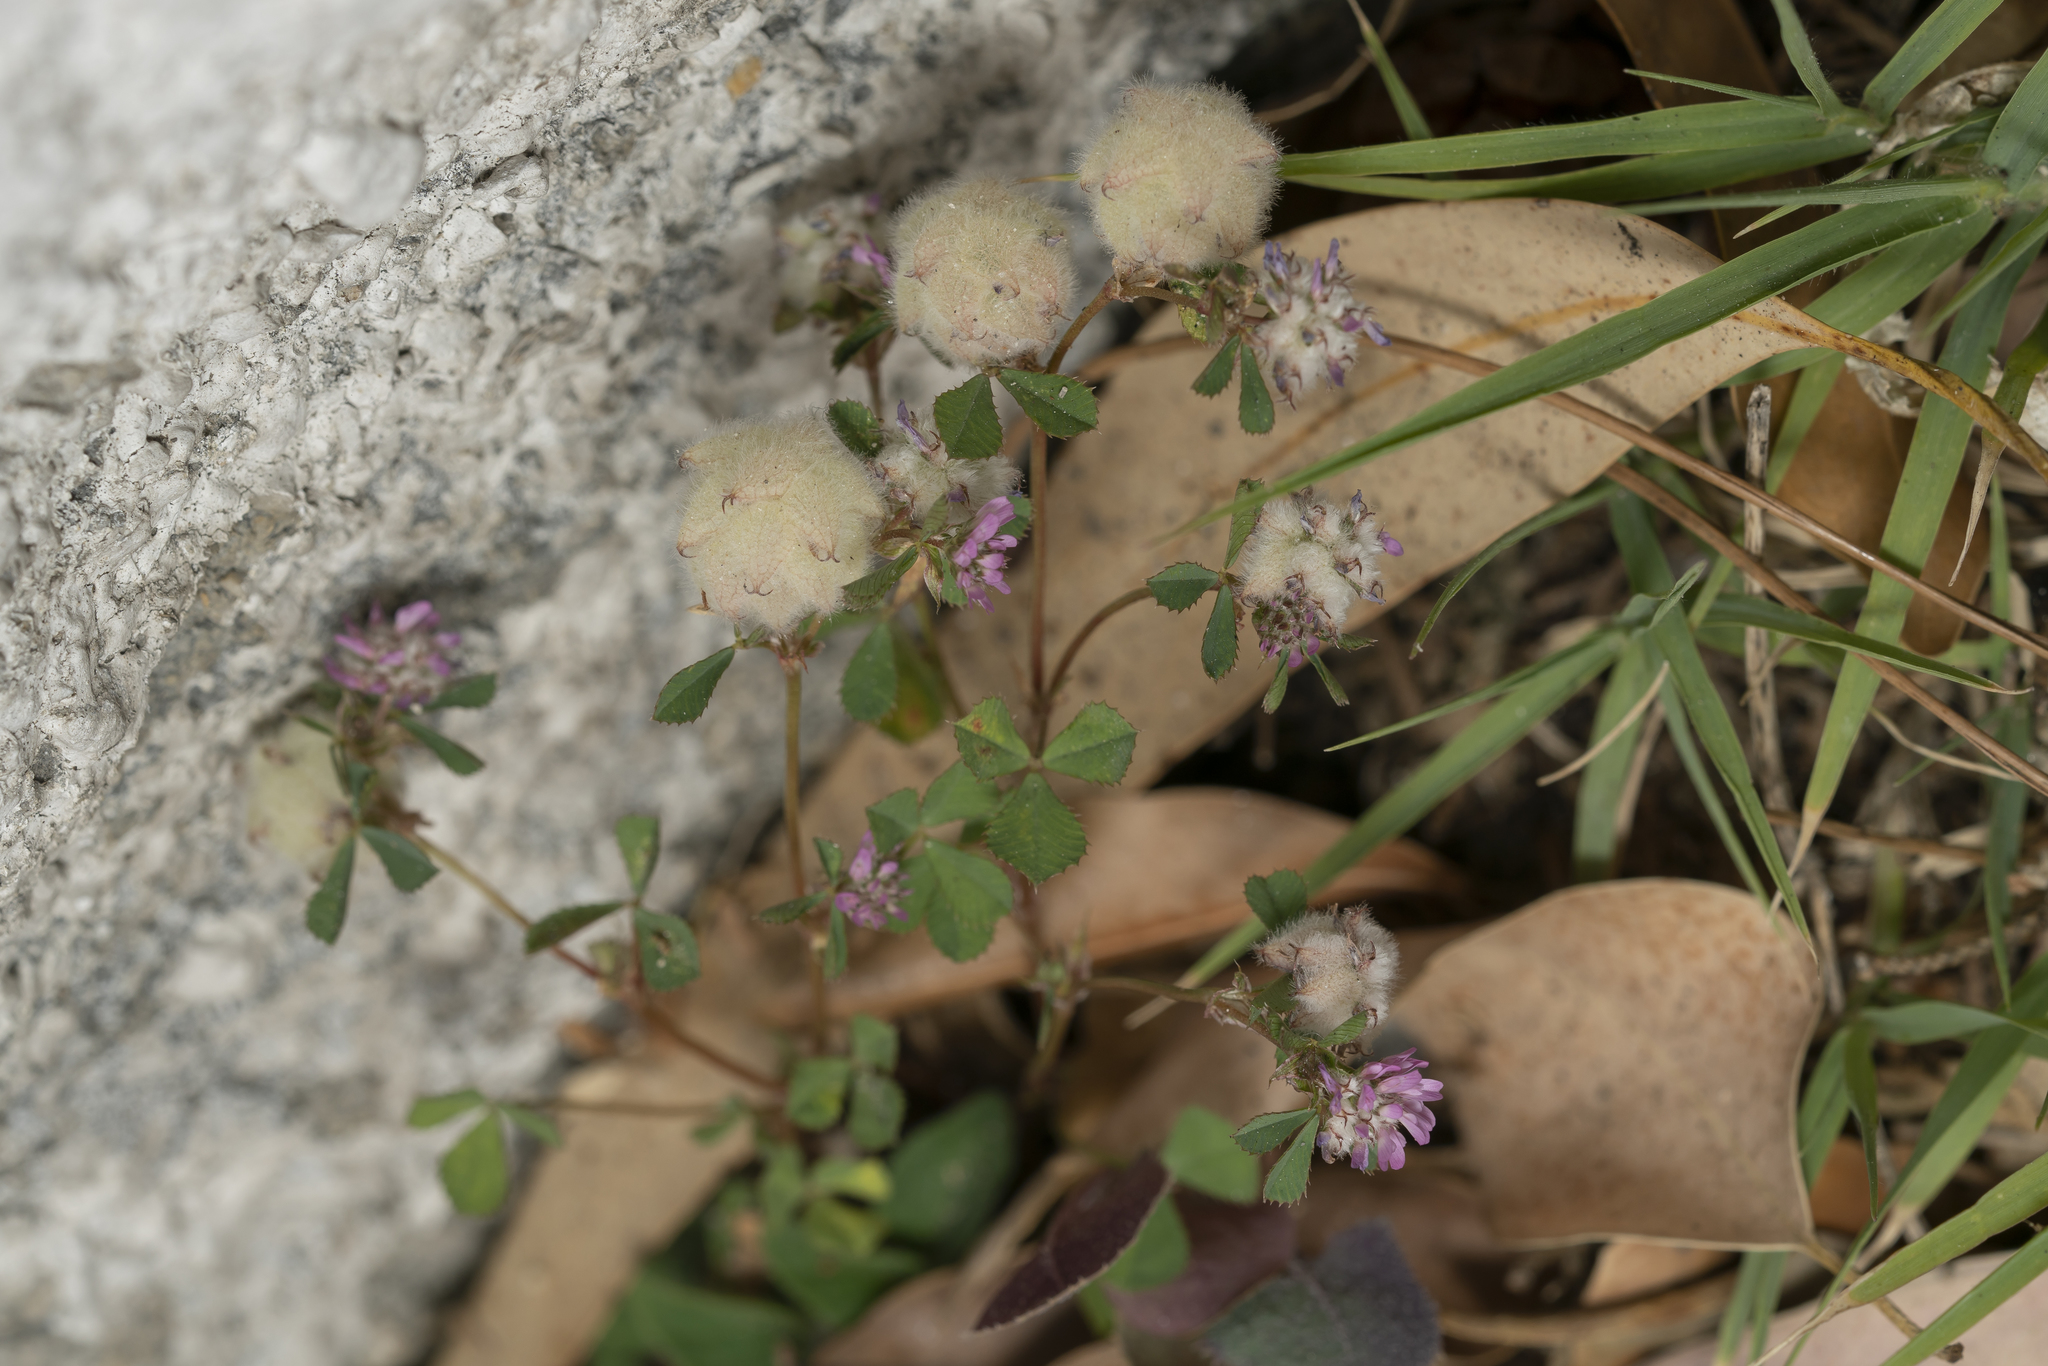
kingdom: Plantae
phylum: Tracheophyta
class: Magnoliopsida
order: Fabales
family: Fabaceae
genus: Trifolium
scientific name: Trifolium tomentosum
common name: Woolly clover
